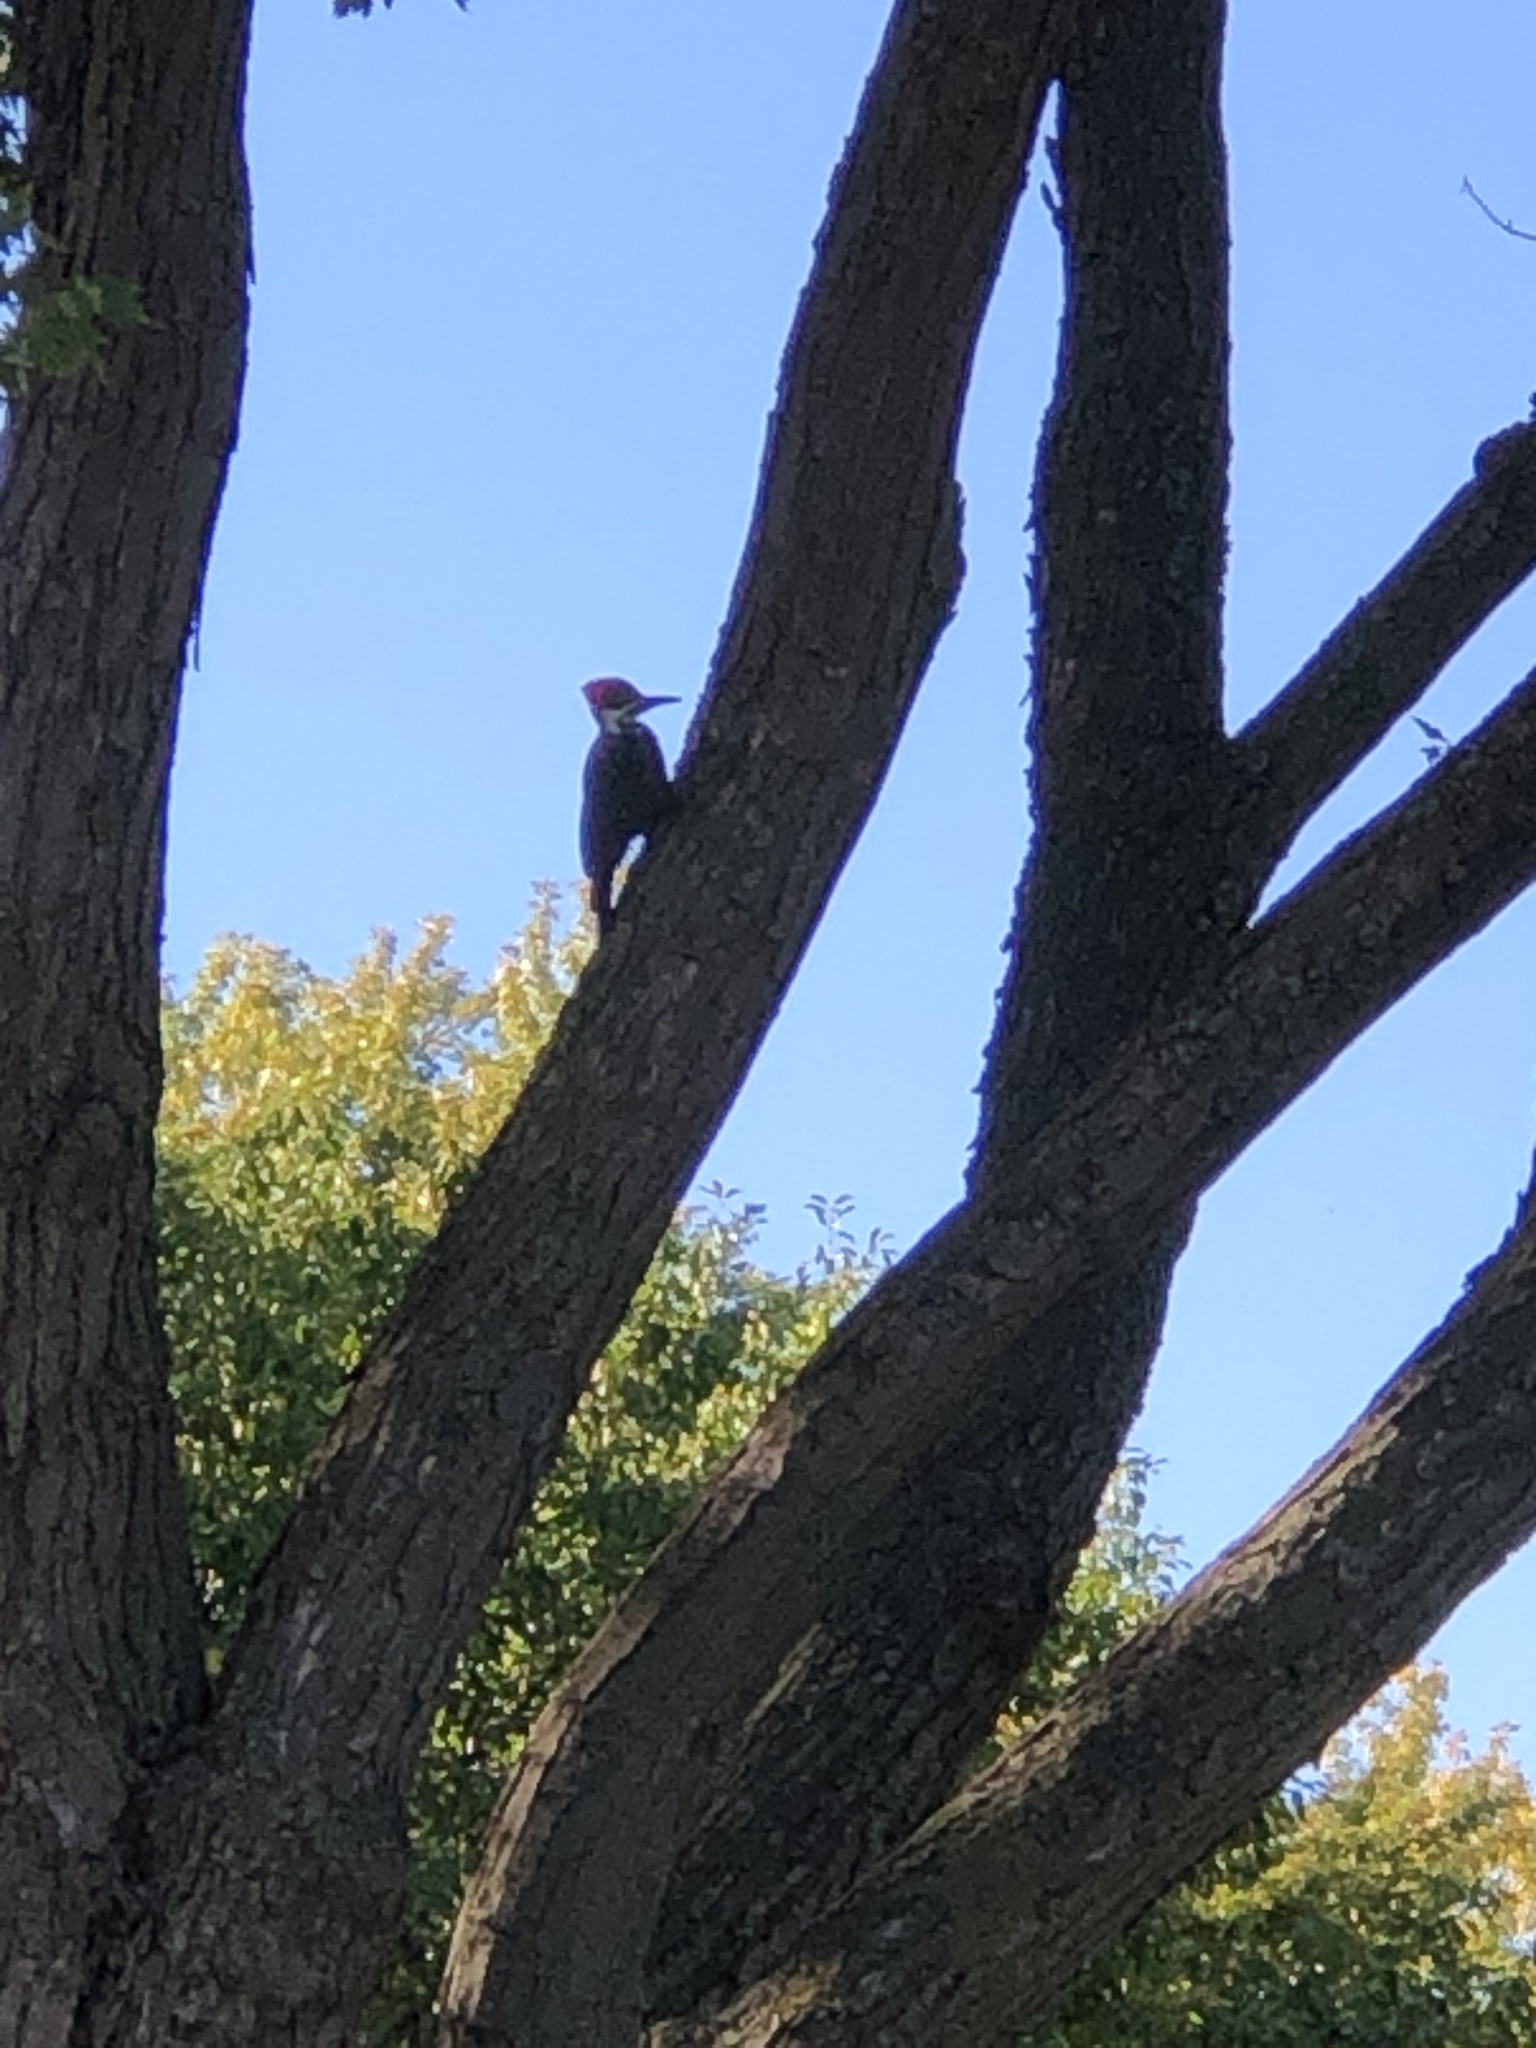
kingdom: Animalia
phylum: Chordata
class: Aves
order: Piciformes
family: Picidae
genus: Dryocopus
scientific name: Dryocopus pileatus
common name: Pileated woodpecker
